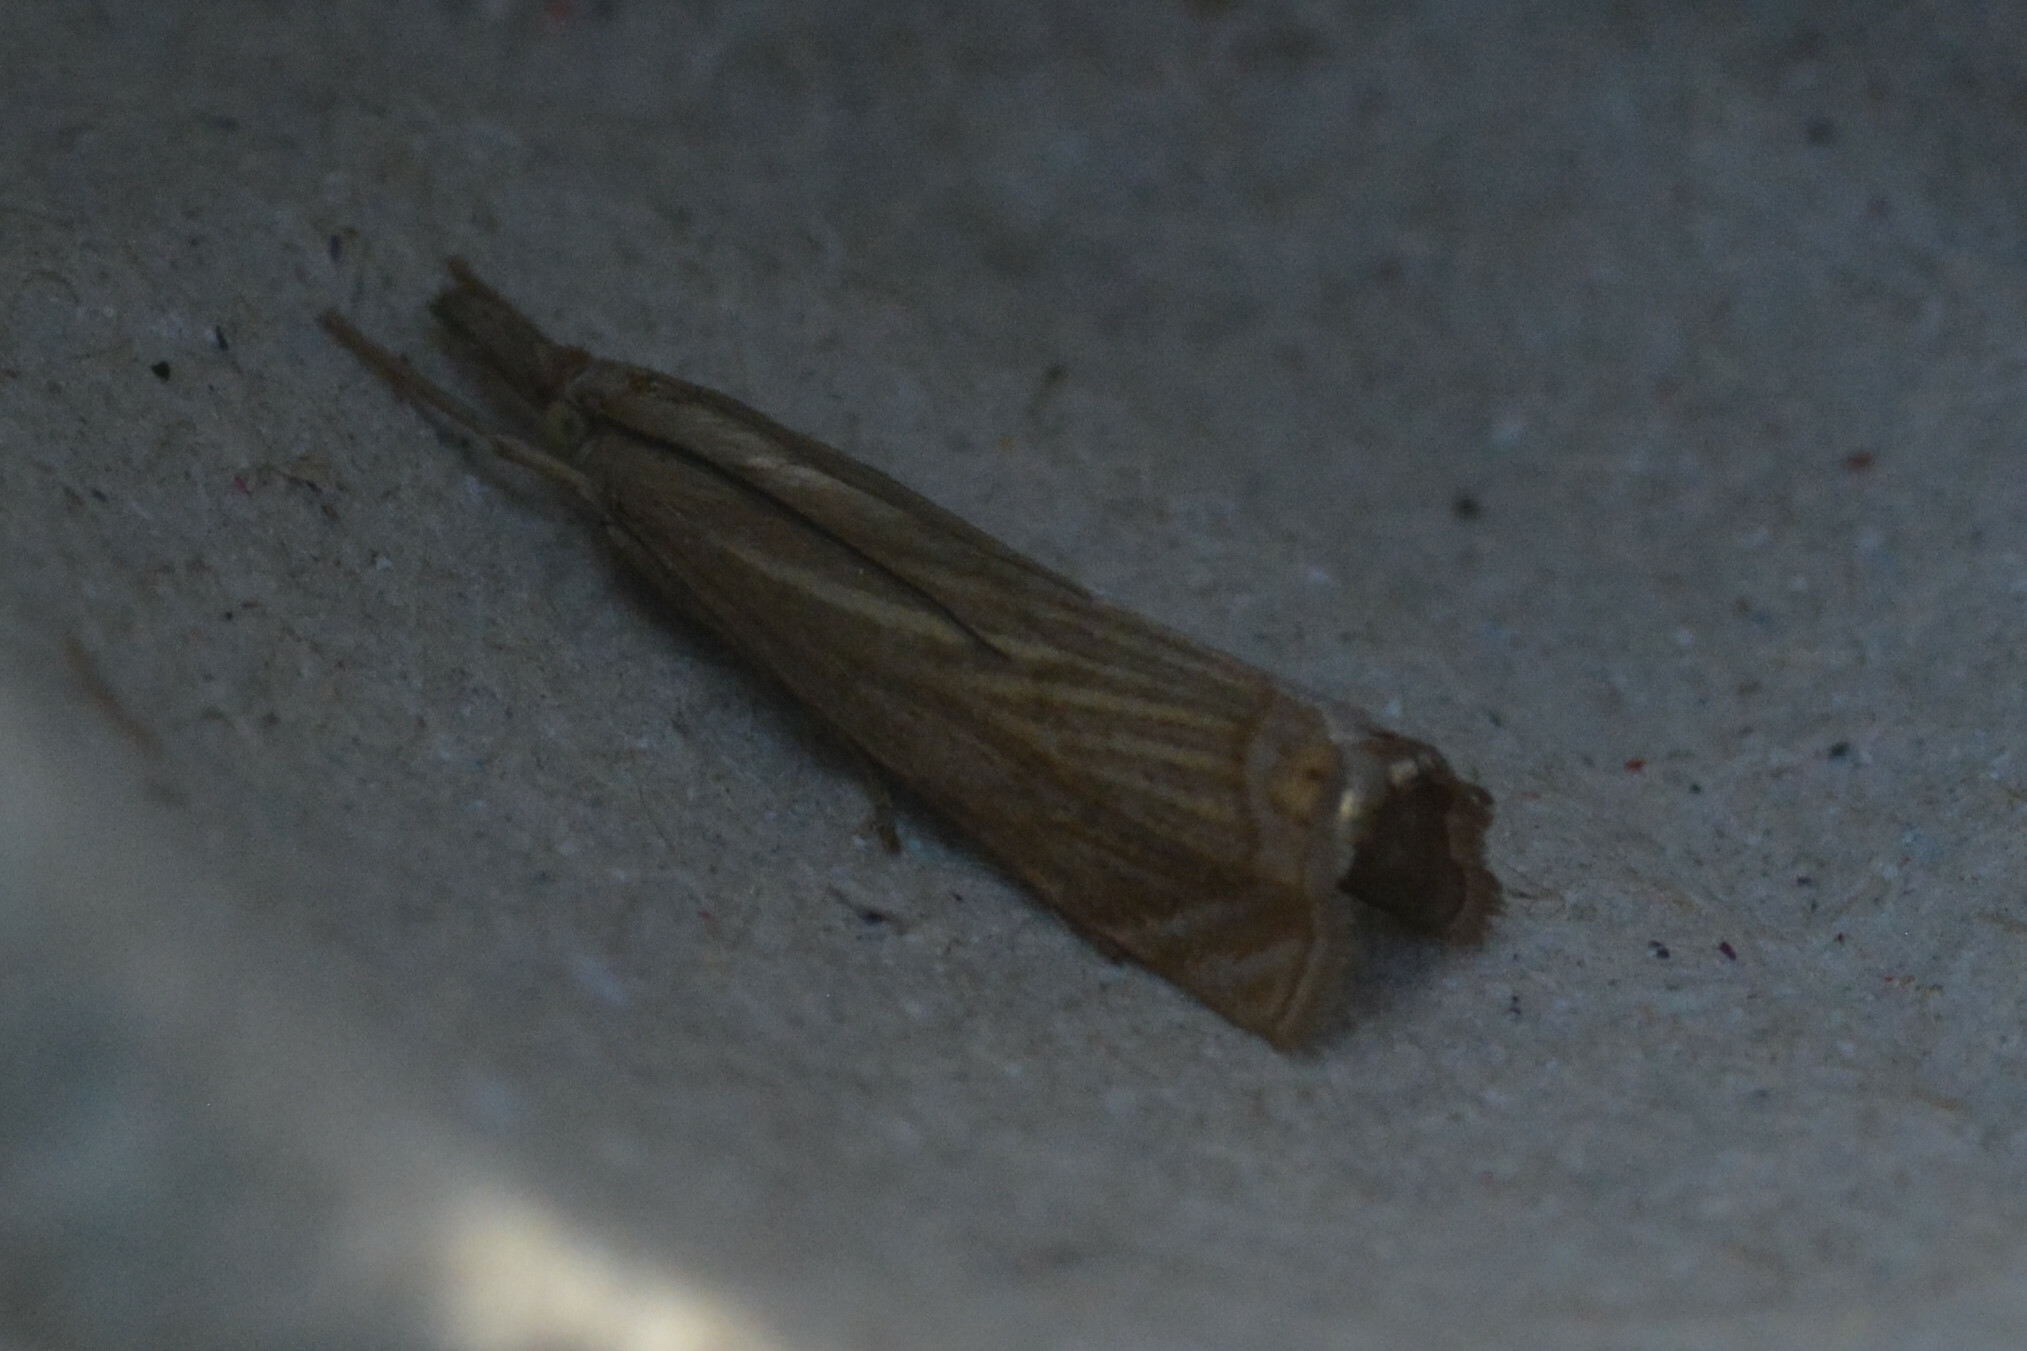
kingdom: Animalia
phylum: Arthropoda
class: Insecta
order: Lepidoptera
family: Crambidae
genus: Chrysoteuchia
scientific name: Chrysoteuchia culmella
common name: Garden grass-veneer
